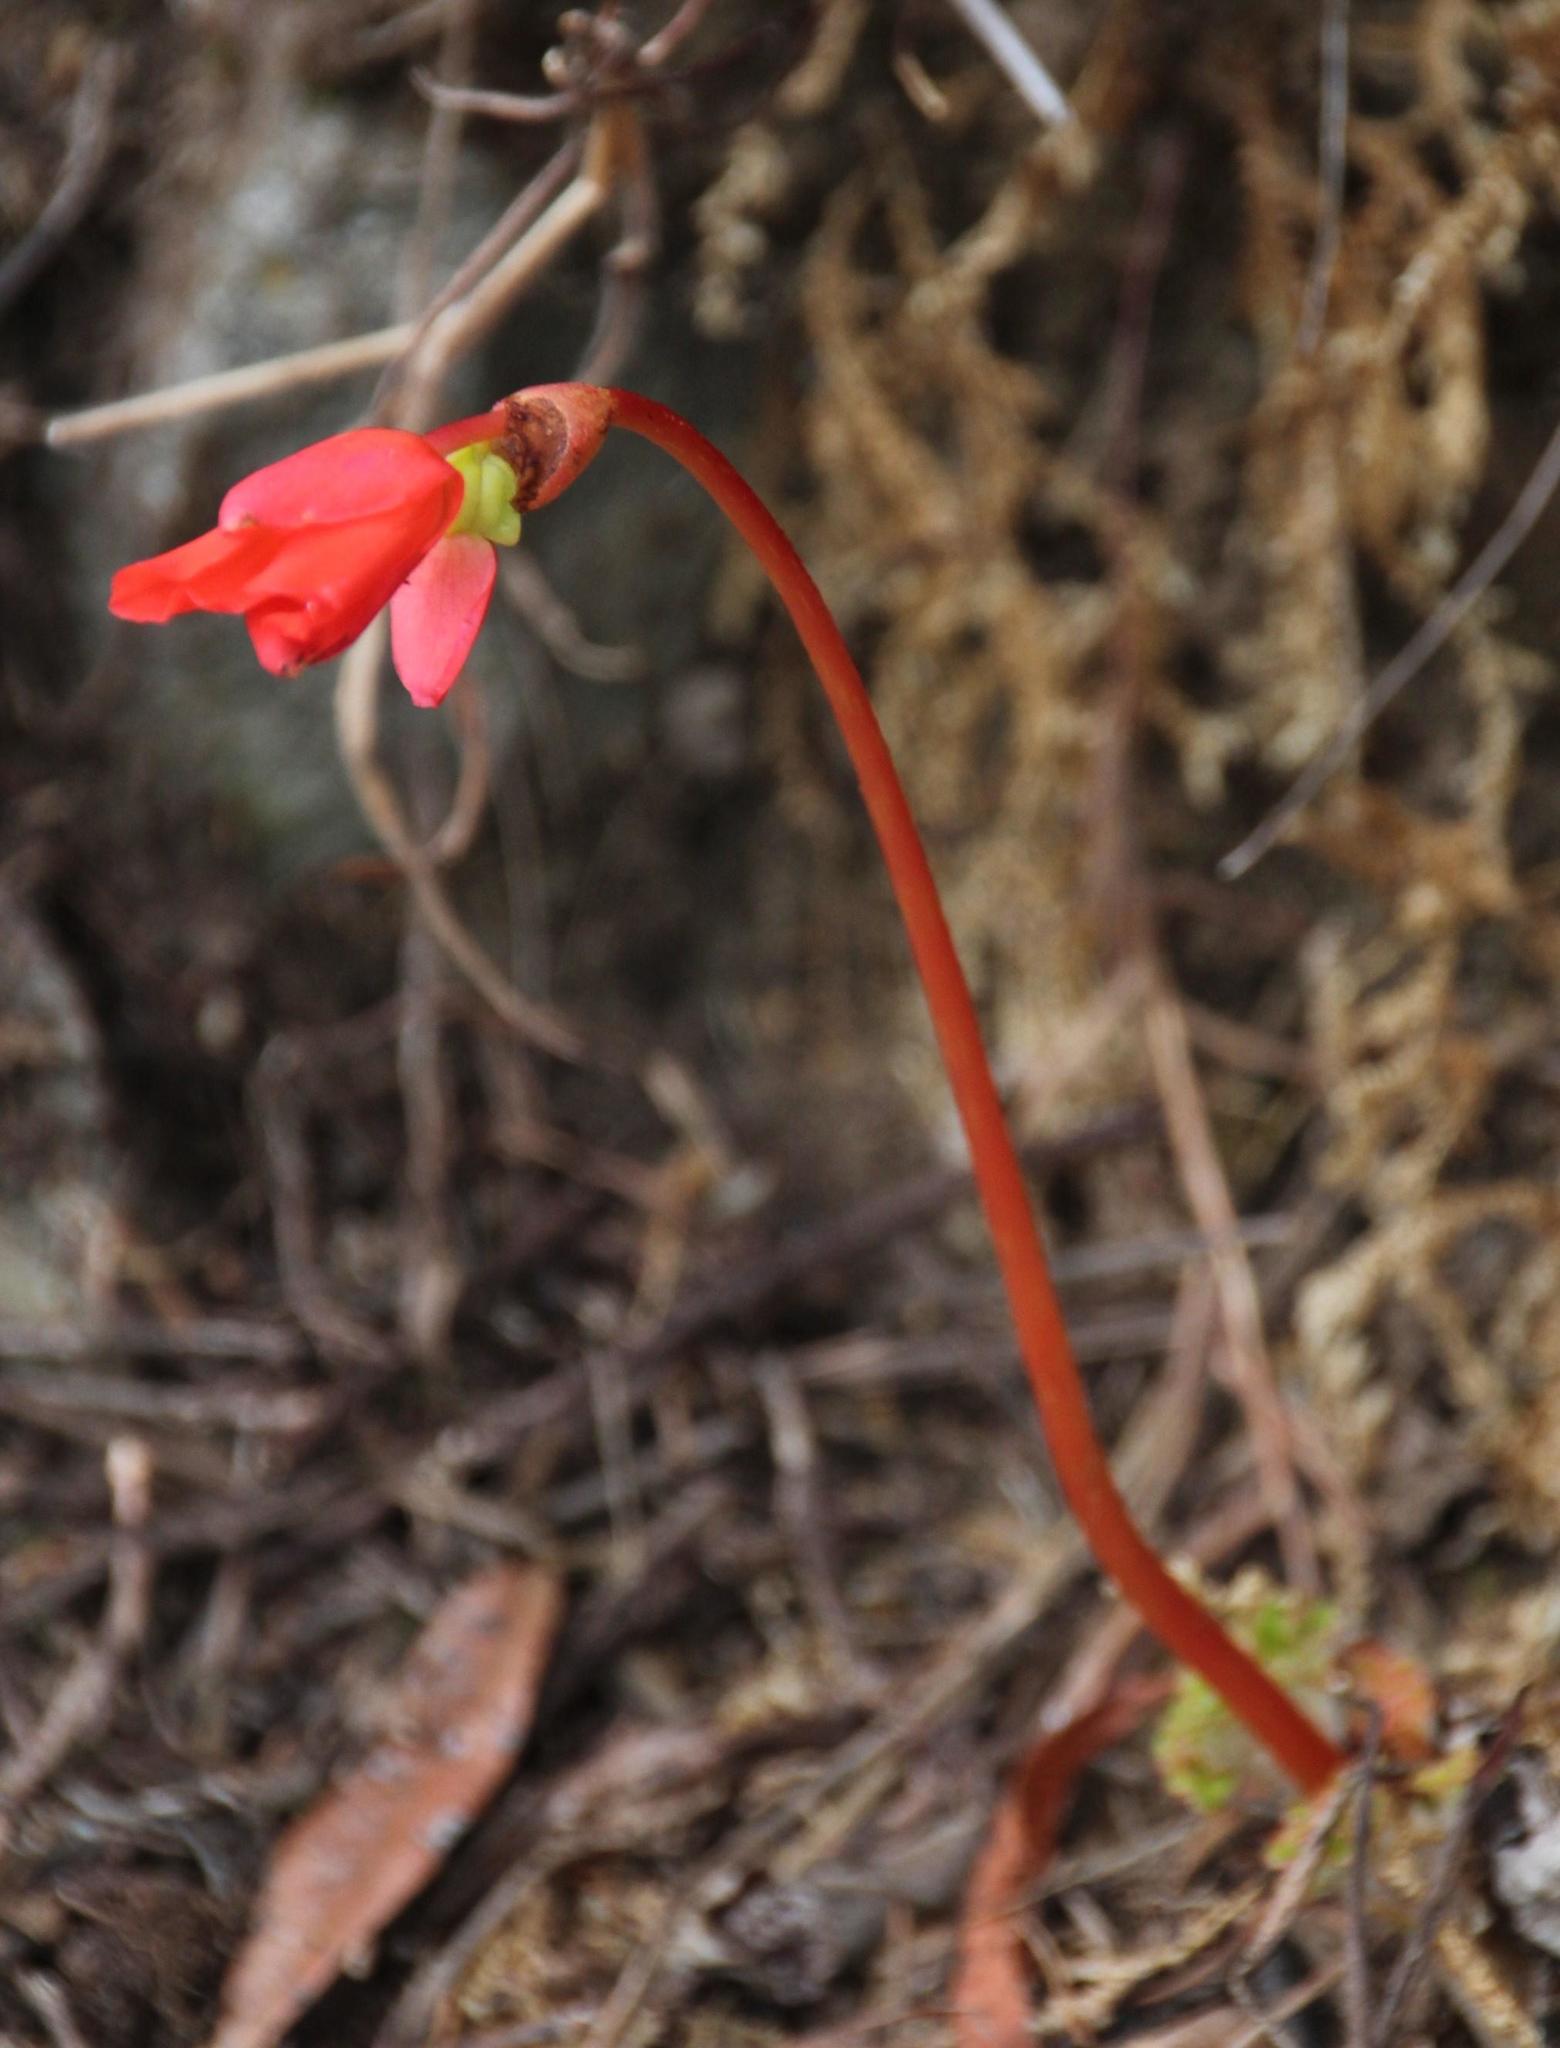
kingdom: Plantae
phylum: Tracheophyta
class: Magnoliopsida
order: Cucurbitales
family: Begoniaceae
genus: Begonia
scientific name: Begonia veitchii
